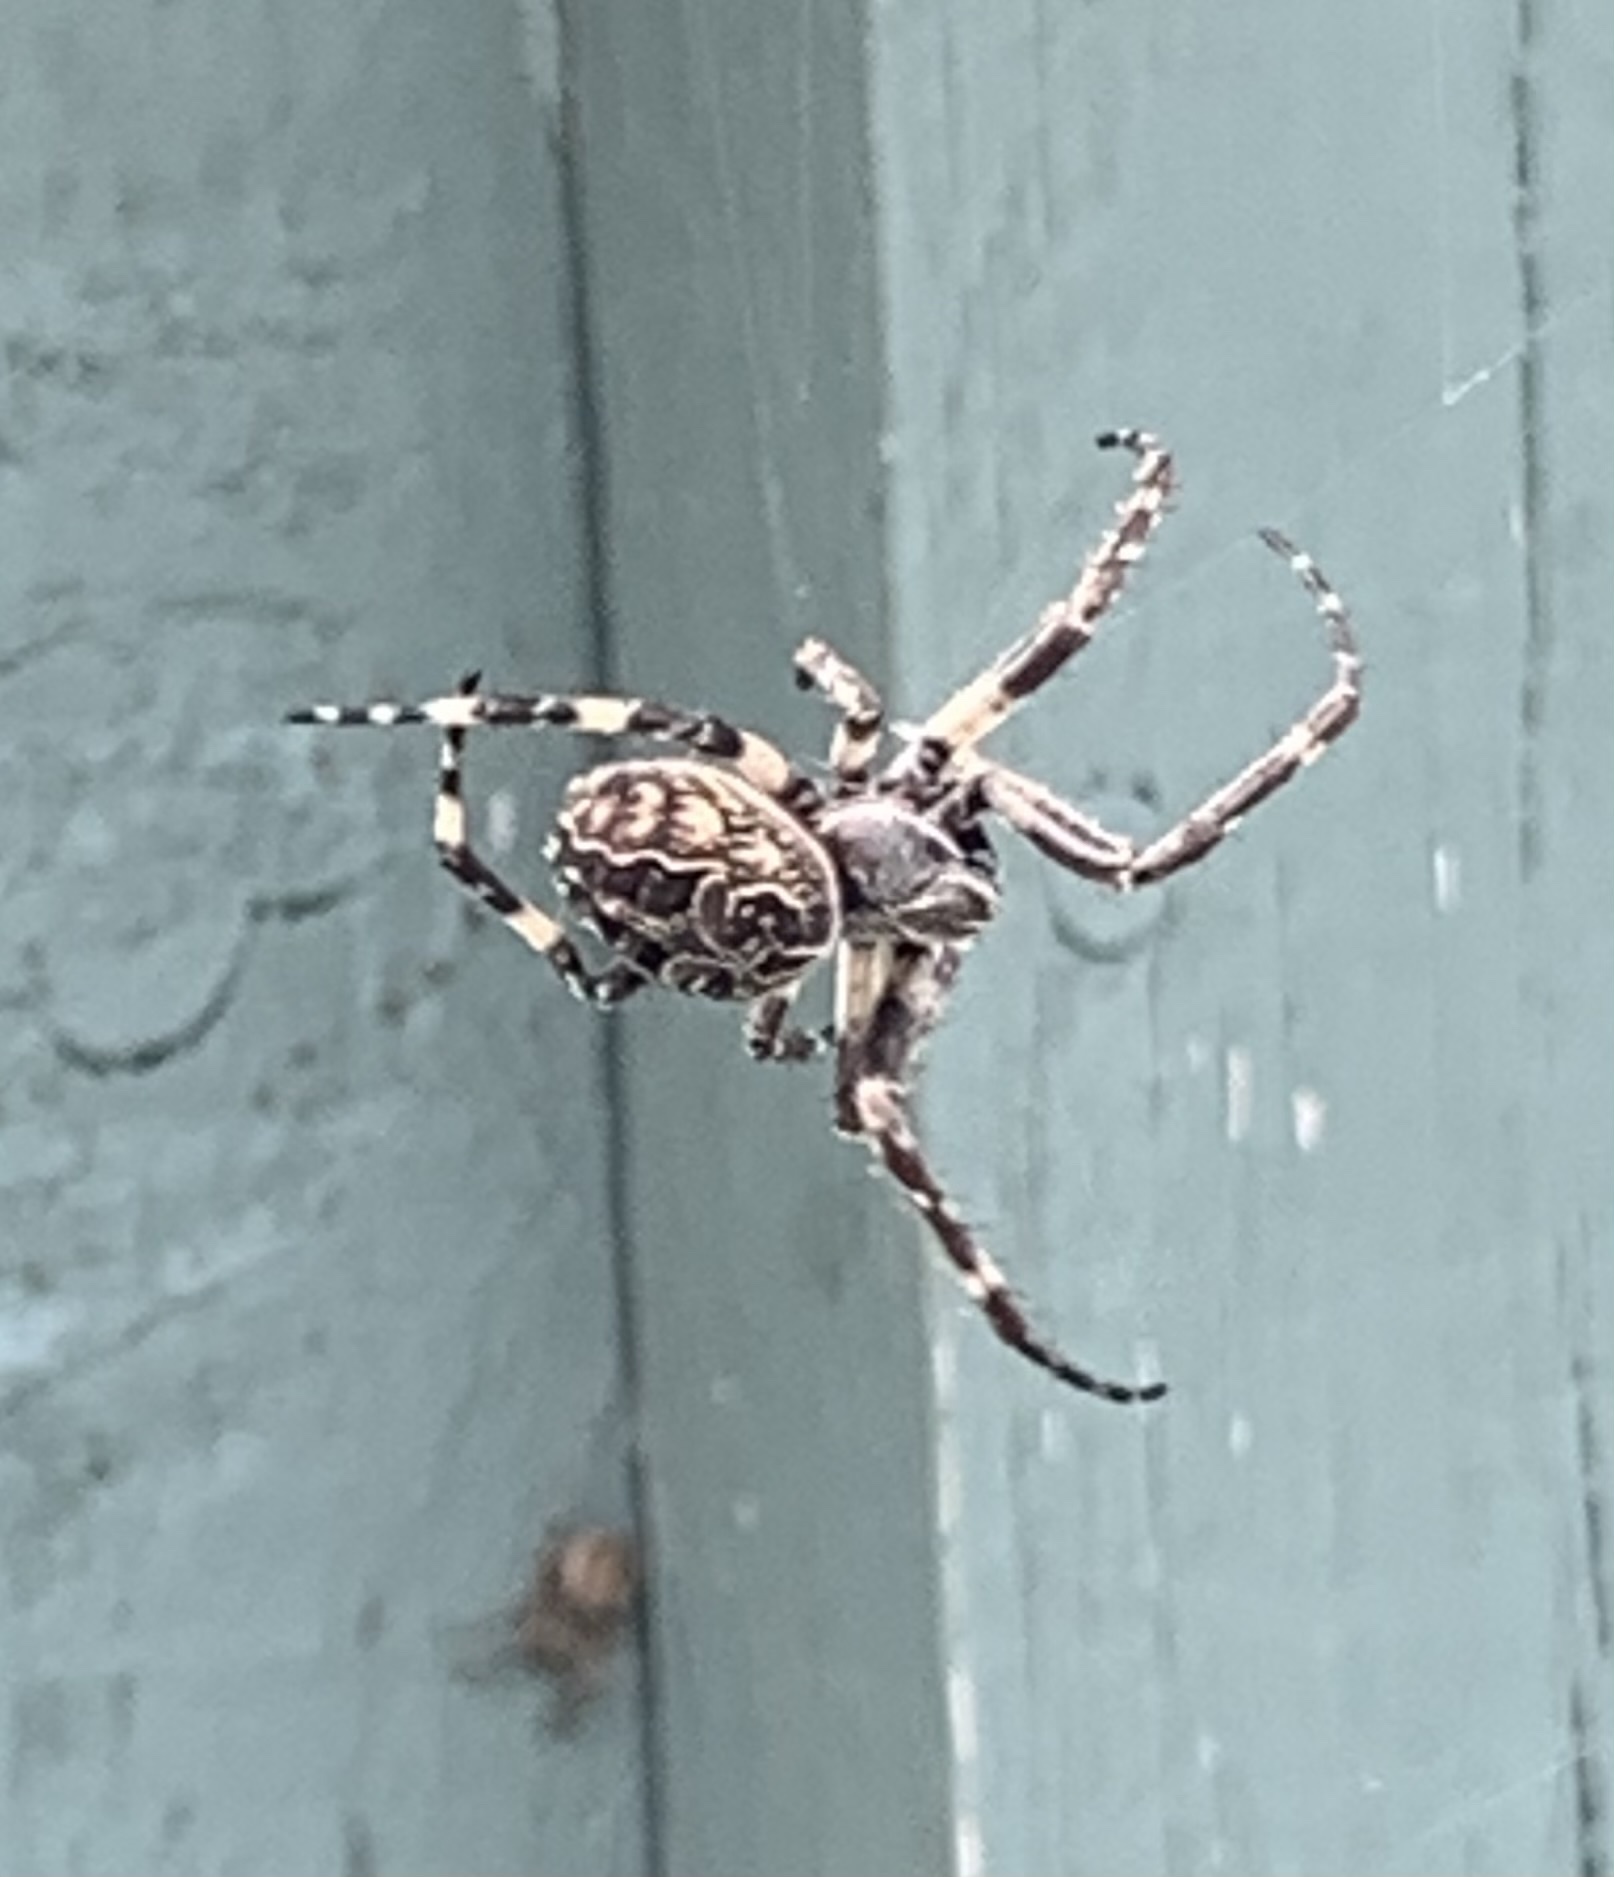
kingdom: Animalia
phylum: Arthropoda
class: Arachnida
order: Araneae
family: Araneidae
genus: Larinioides
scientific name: Larinioides sclopetarius
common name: Bridge orbweaver
